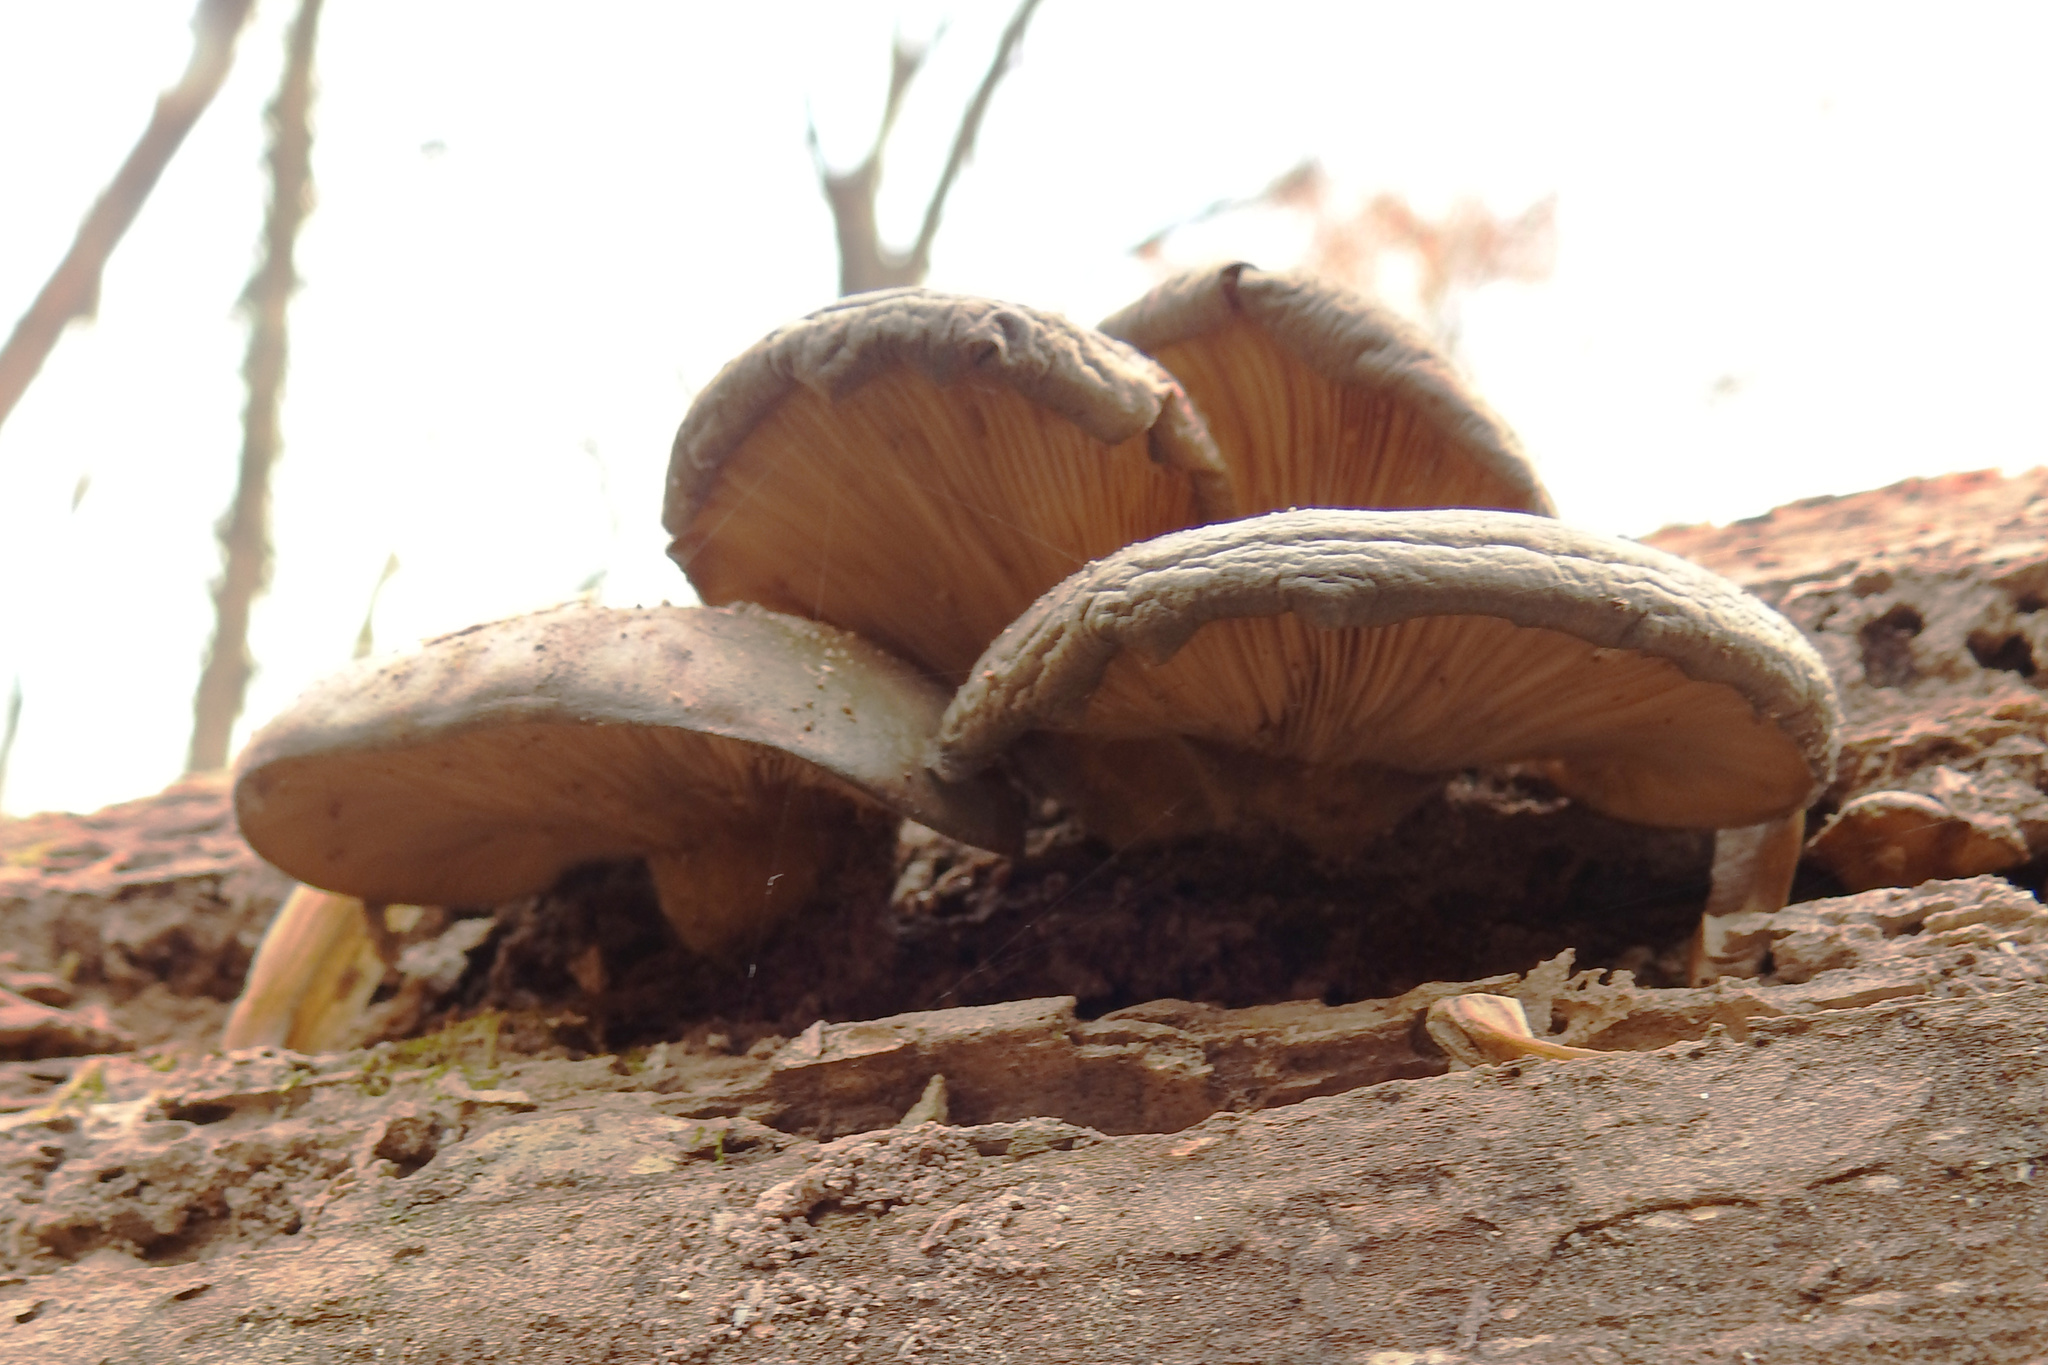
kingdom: Fungi
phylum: Basidiomycota
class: Agaricomycetes
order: Agaricales
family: Sarcomyxaceae
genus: Sarcomyxa
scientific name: Sarcomyxa serotina
